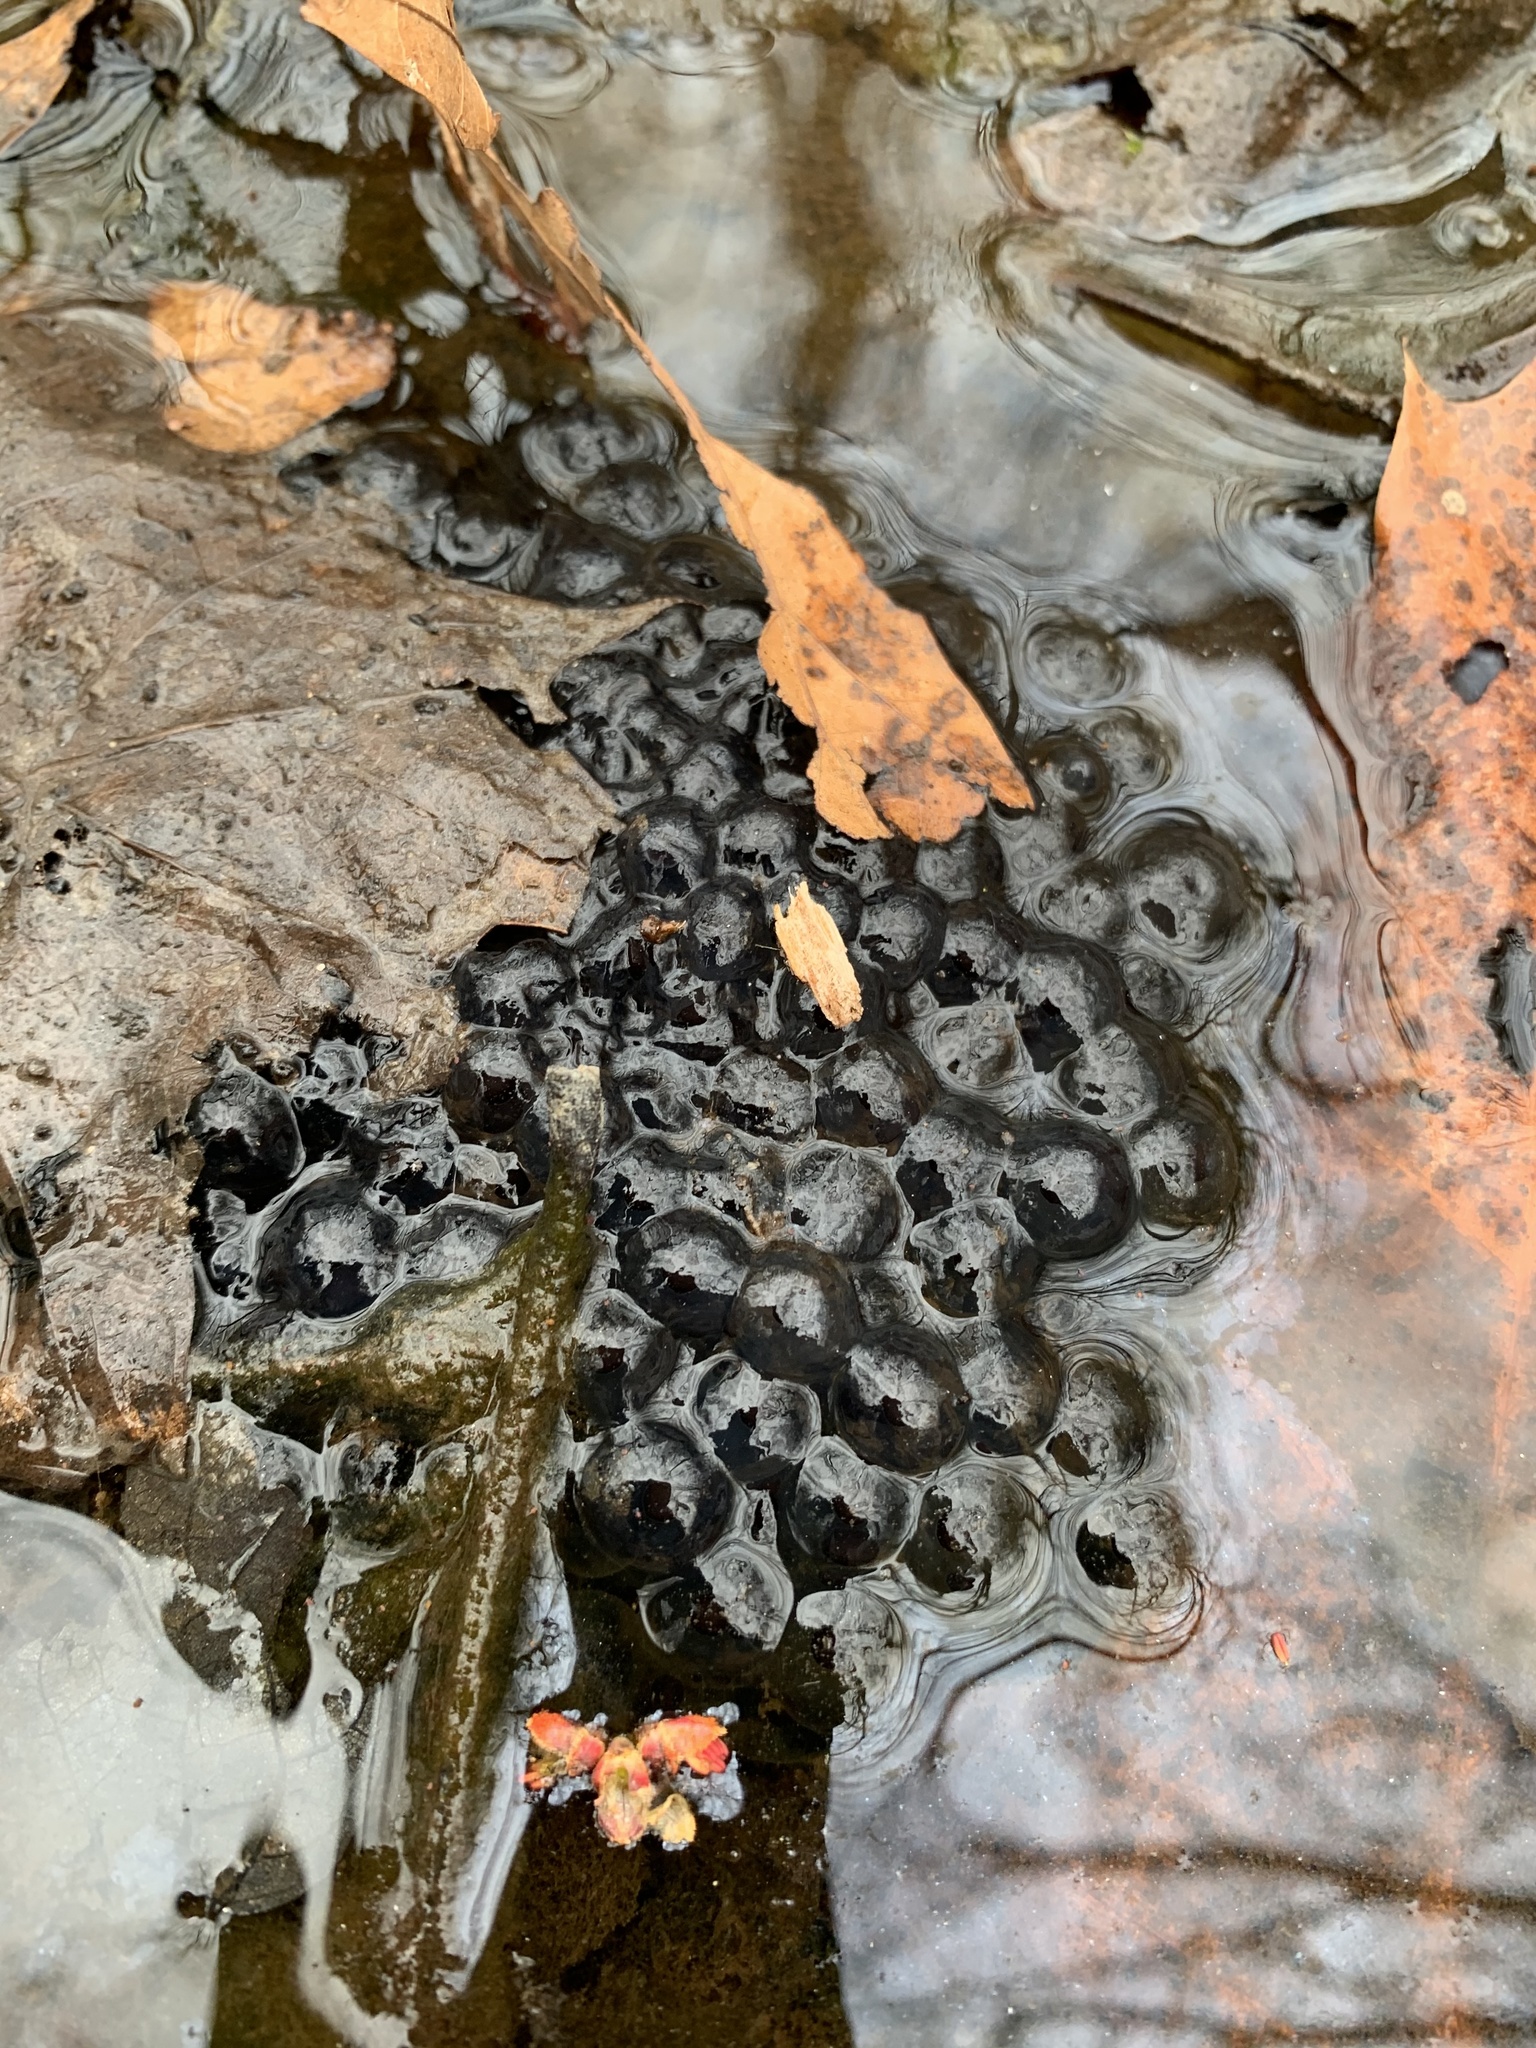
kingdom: Animalia
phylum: Chordata
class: Amphibia
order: Anura
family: Ranidae
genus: Lithobates
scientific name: Lithobates sylvaticus
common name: Wood frog
